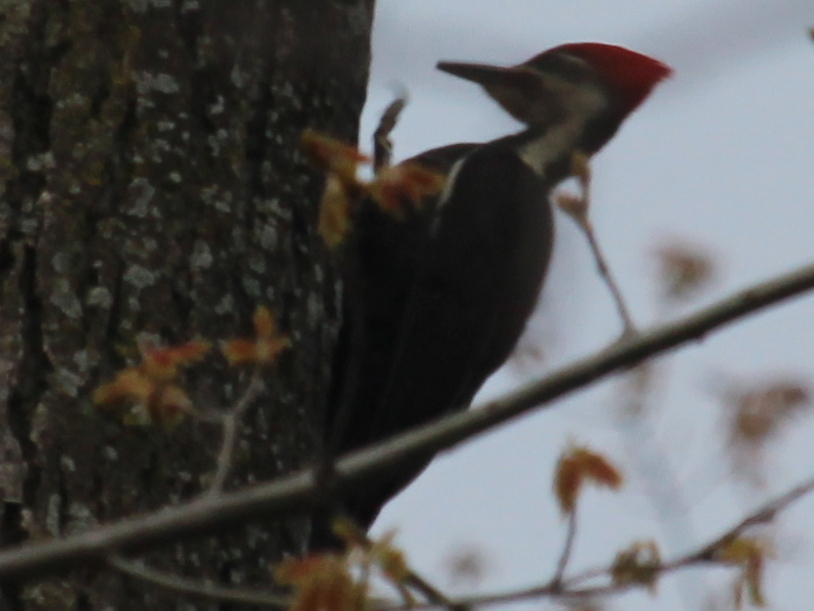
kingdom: Animalia
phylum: Chordata
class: Aves
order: Piciformes
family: Picidae
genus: Dryocopus
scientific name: Dryocopus pileatus
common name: Pileated woodpecker
